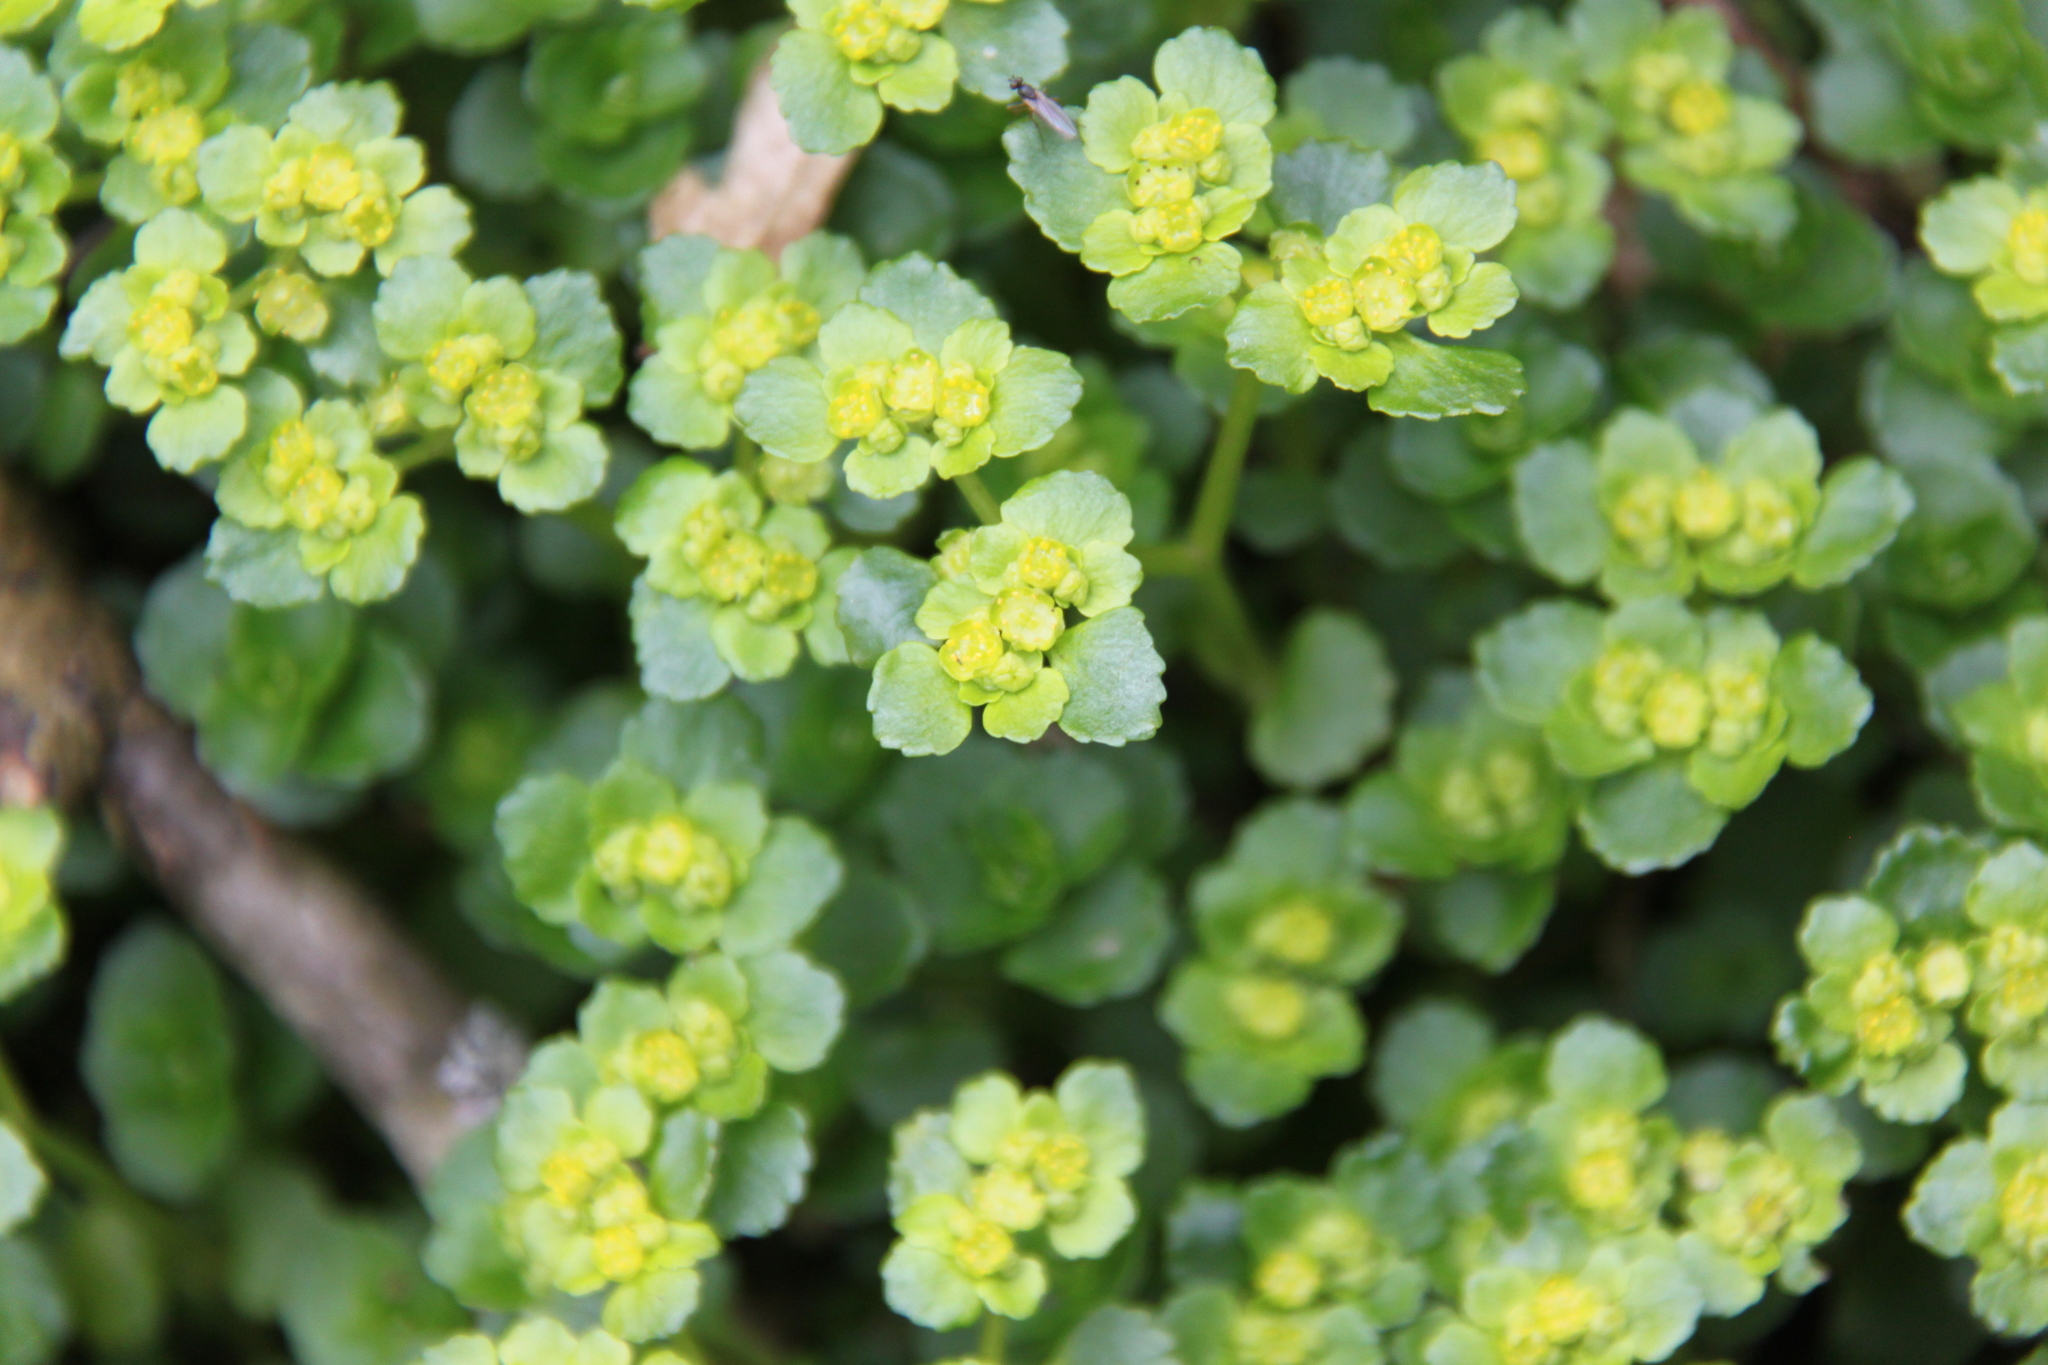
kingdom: Plantae
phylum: Tracheophyta
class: Magnoliopsida
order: Saxifragales
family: Saxifragaceae
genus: Chrysosplenium
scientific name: Chrysosplenium oppositifolium
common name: Opposite-leaved golden-saxifrage
